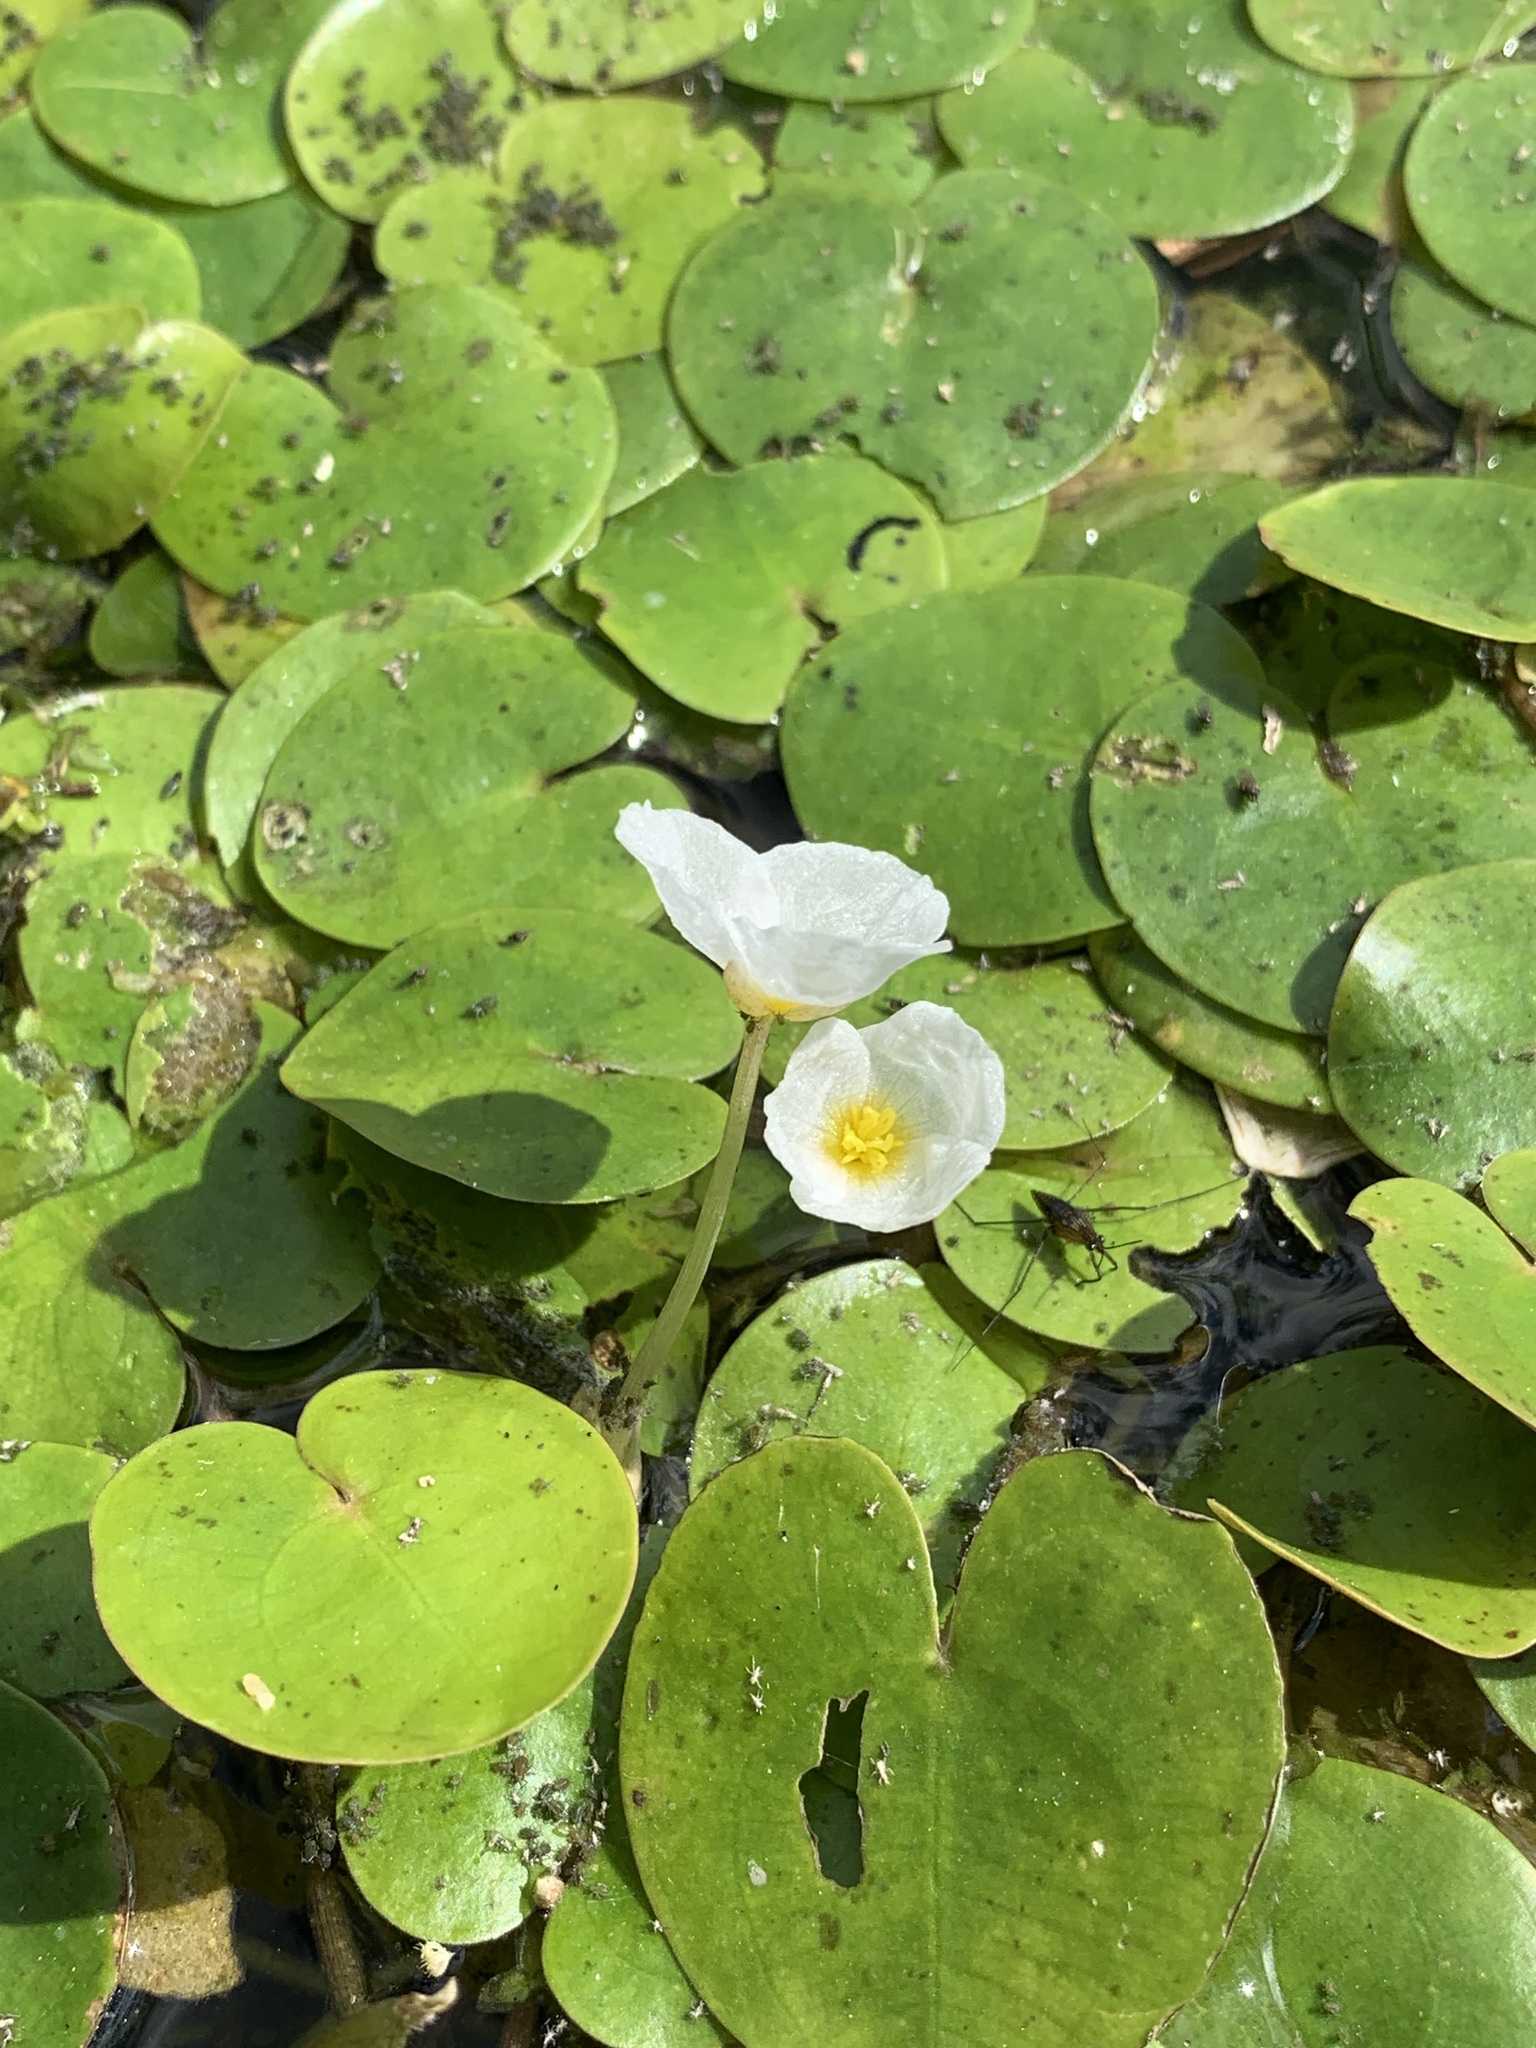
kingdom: Plantae
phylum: Tracheophyta
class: Liliopsida
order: Alismatales
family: Hydrocharitaceae
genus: Hydrocharis
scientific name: Hydrocharis morsus-ranae
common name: Frogbit
